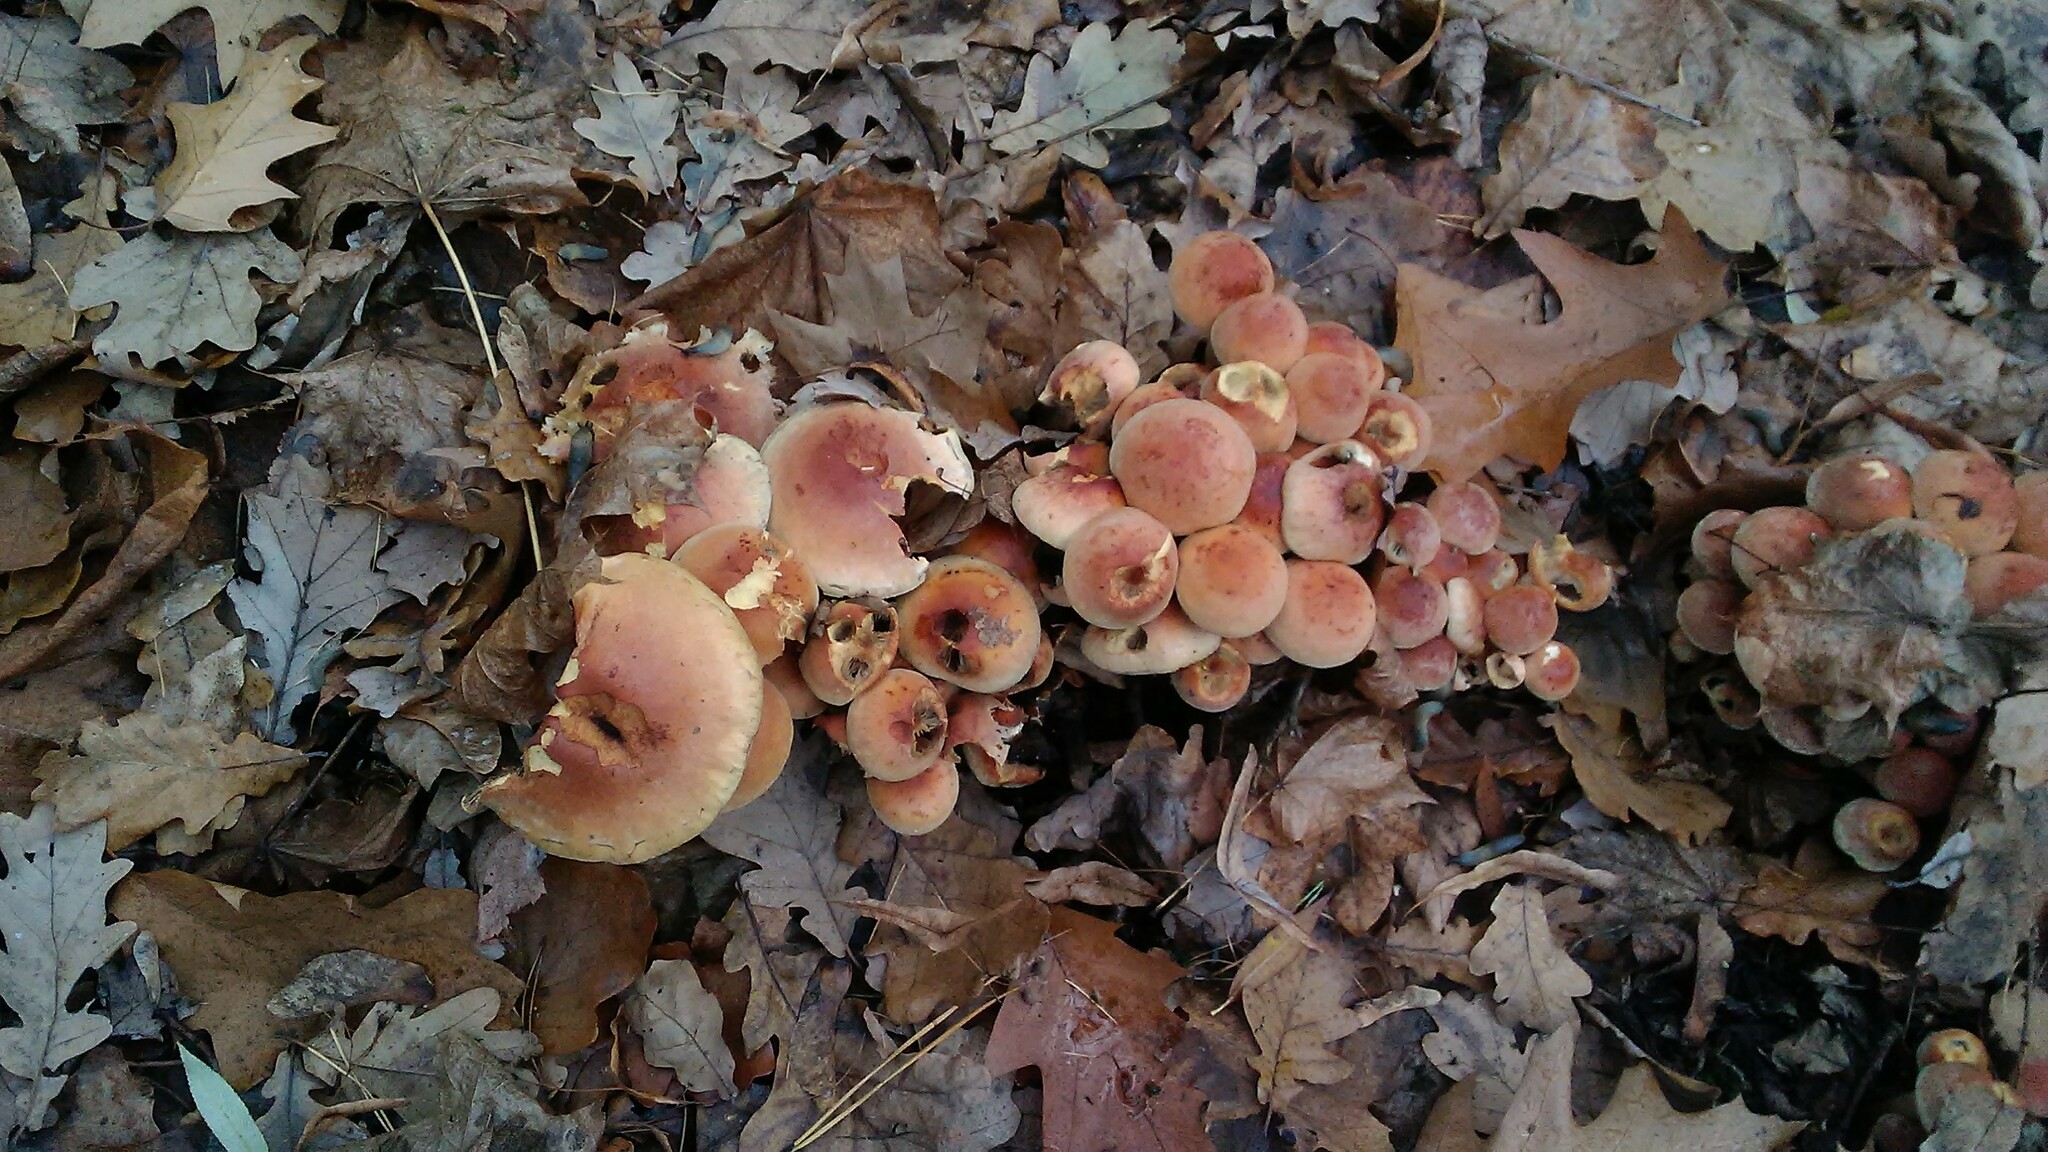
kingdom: Fungi
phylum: Basidiomycota
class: Agaricomycetes
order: Agaricales
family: Strophariaceae
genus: Hypholoma
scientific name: Hypholoma lateritium
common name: Brick caps
